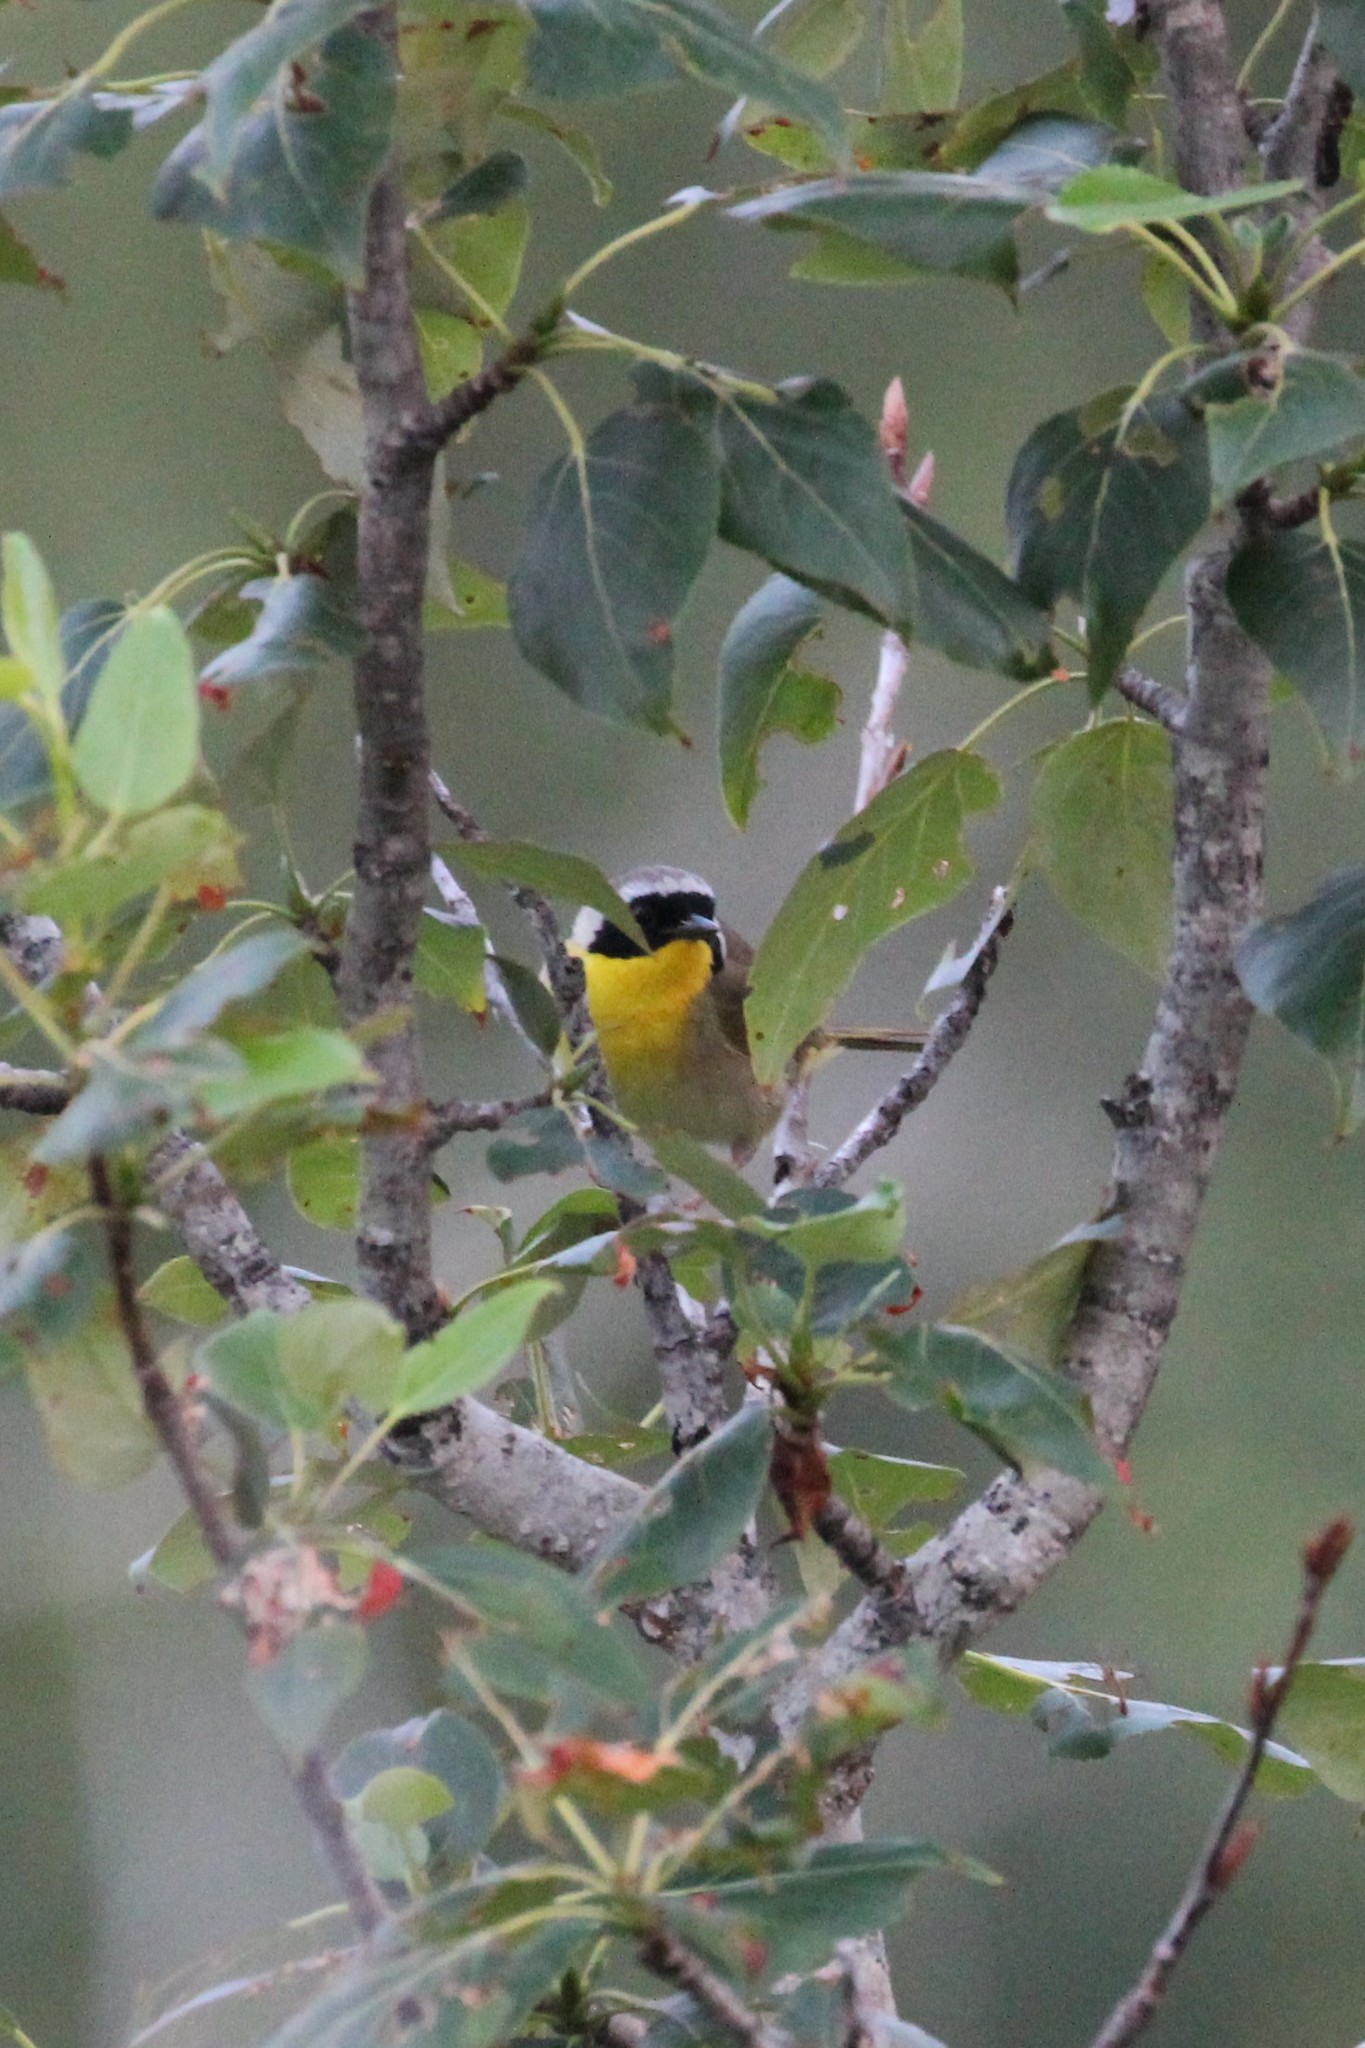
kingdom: Animalia
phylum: Chordata
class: Aves
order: Passeriformes
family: Parulidae
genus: Geothlypis
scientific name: Geothlypis trichas
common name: Common yellowthroat
